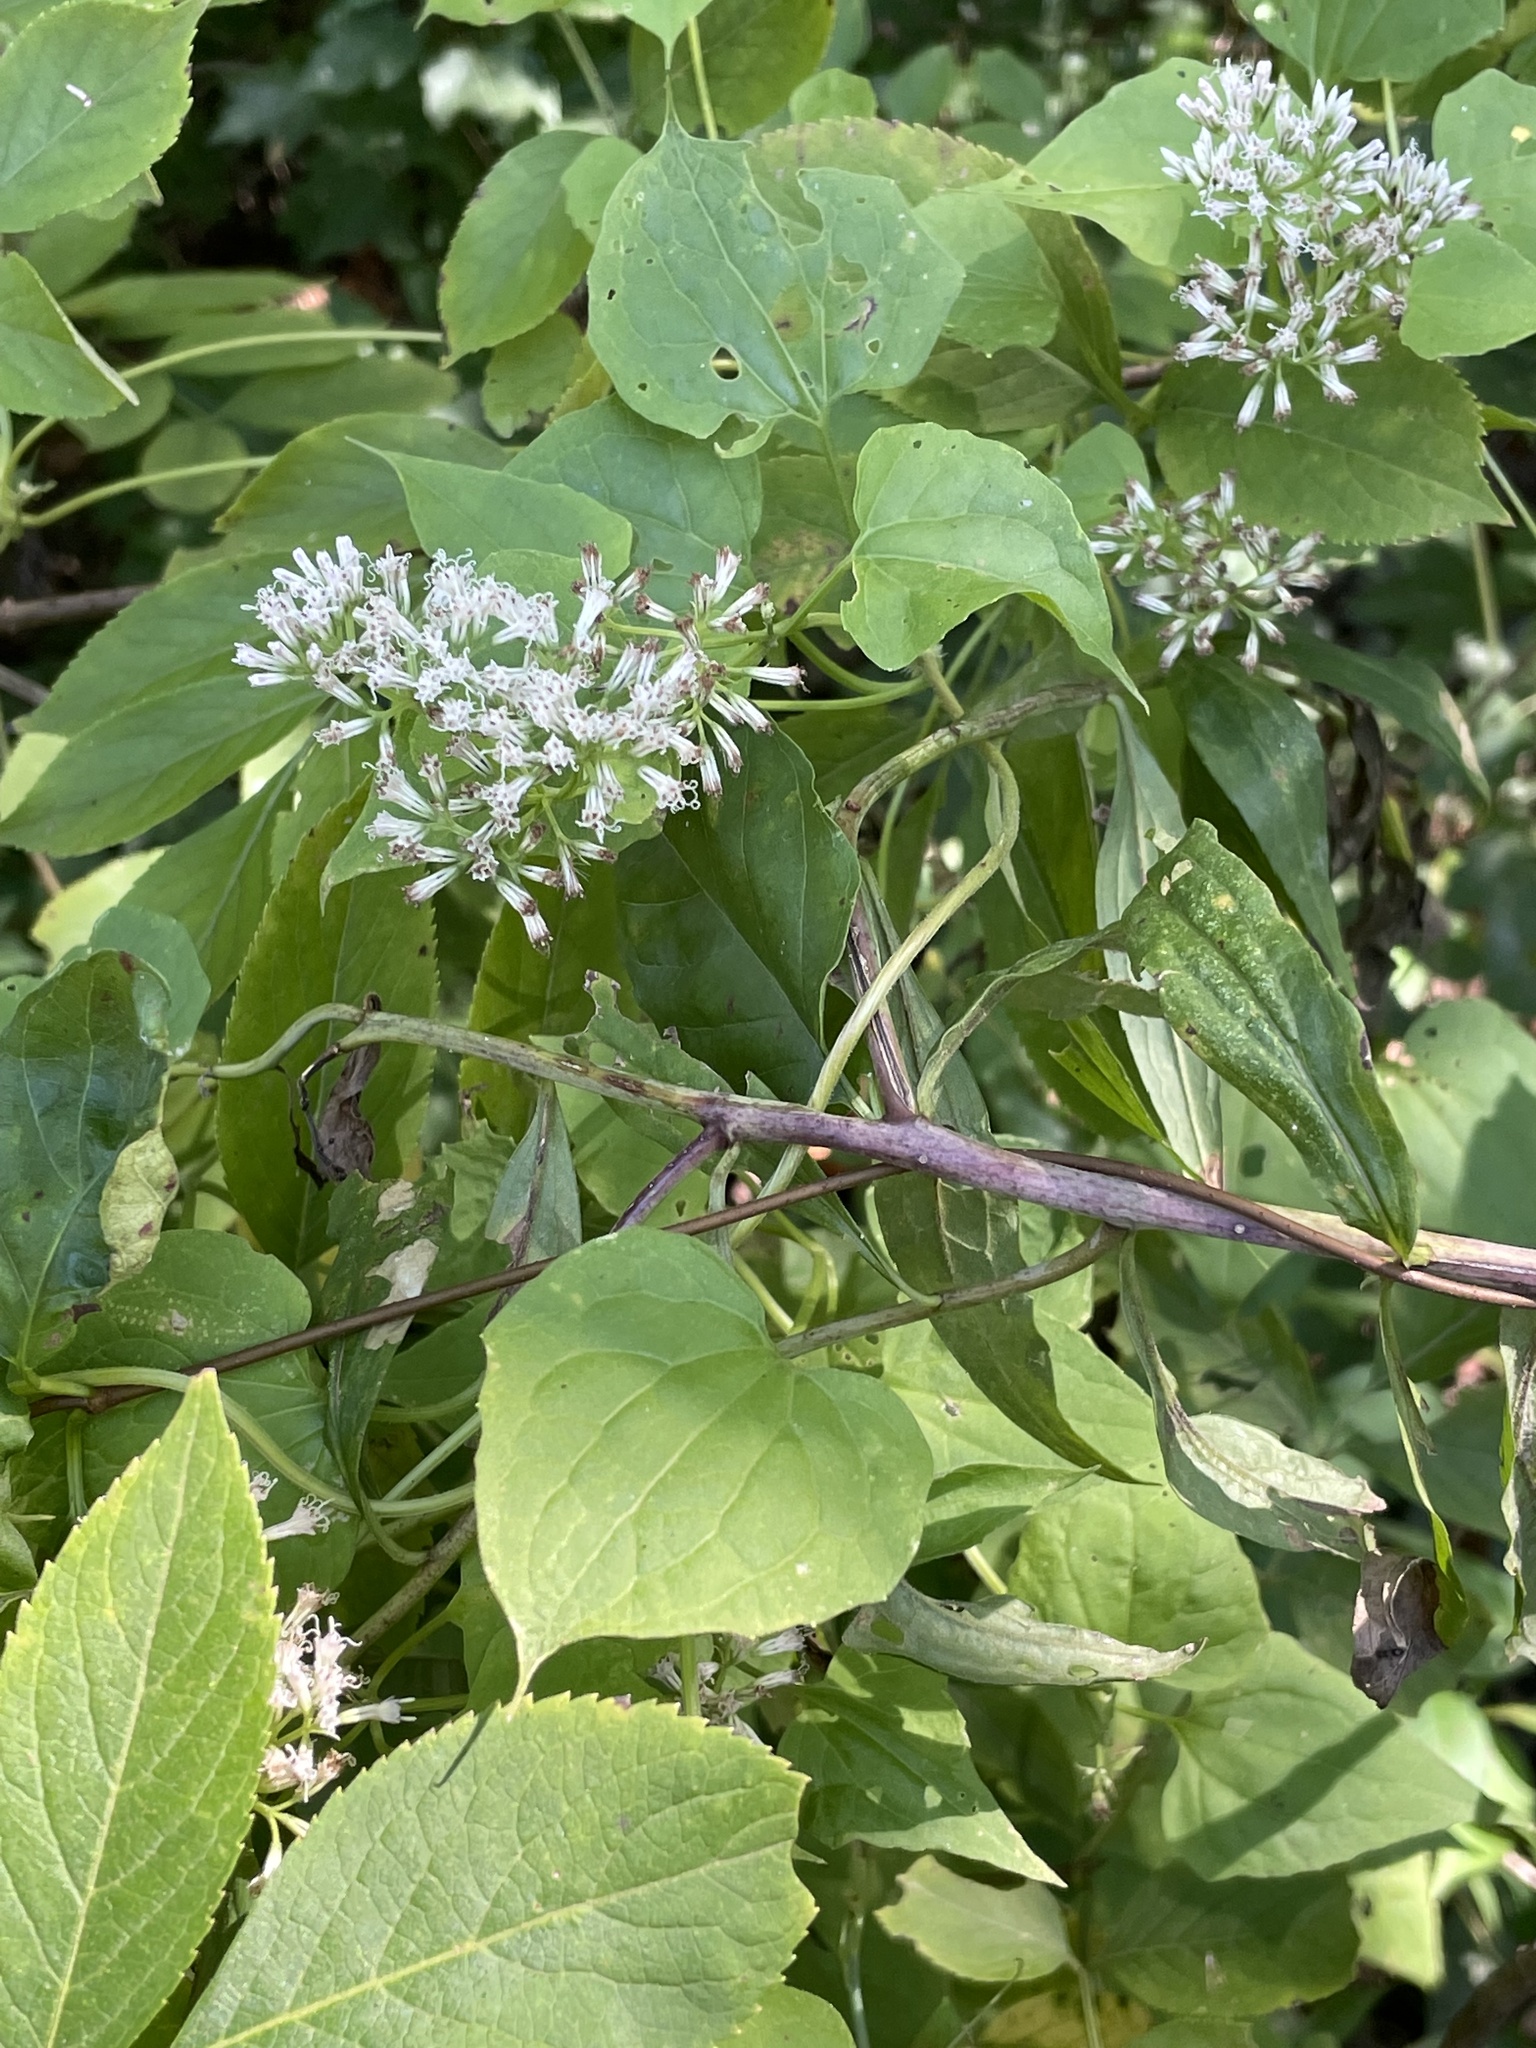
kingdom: Plantae
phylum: Tracheophyta
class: Magnoliopsida
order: Asterales
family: Asteraceae
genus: Mikania
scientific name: Mikania scandens
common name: Climbing hempvine
